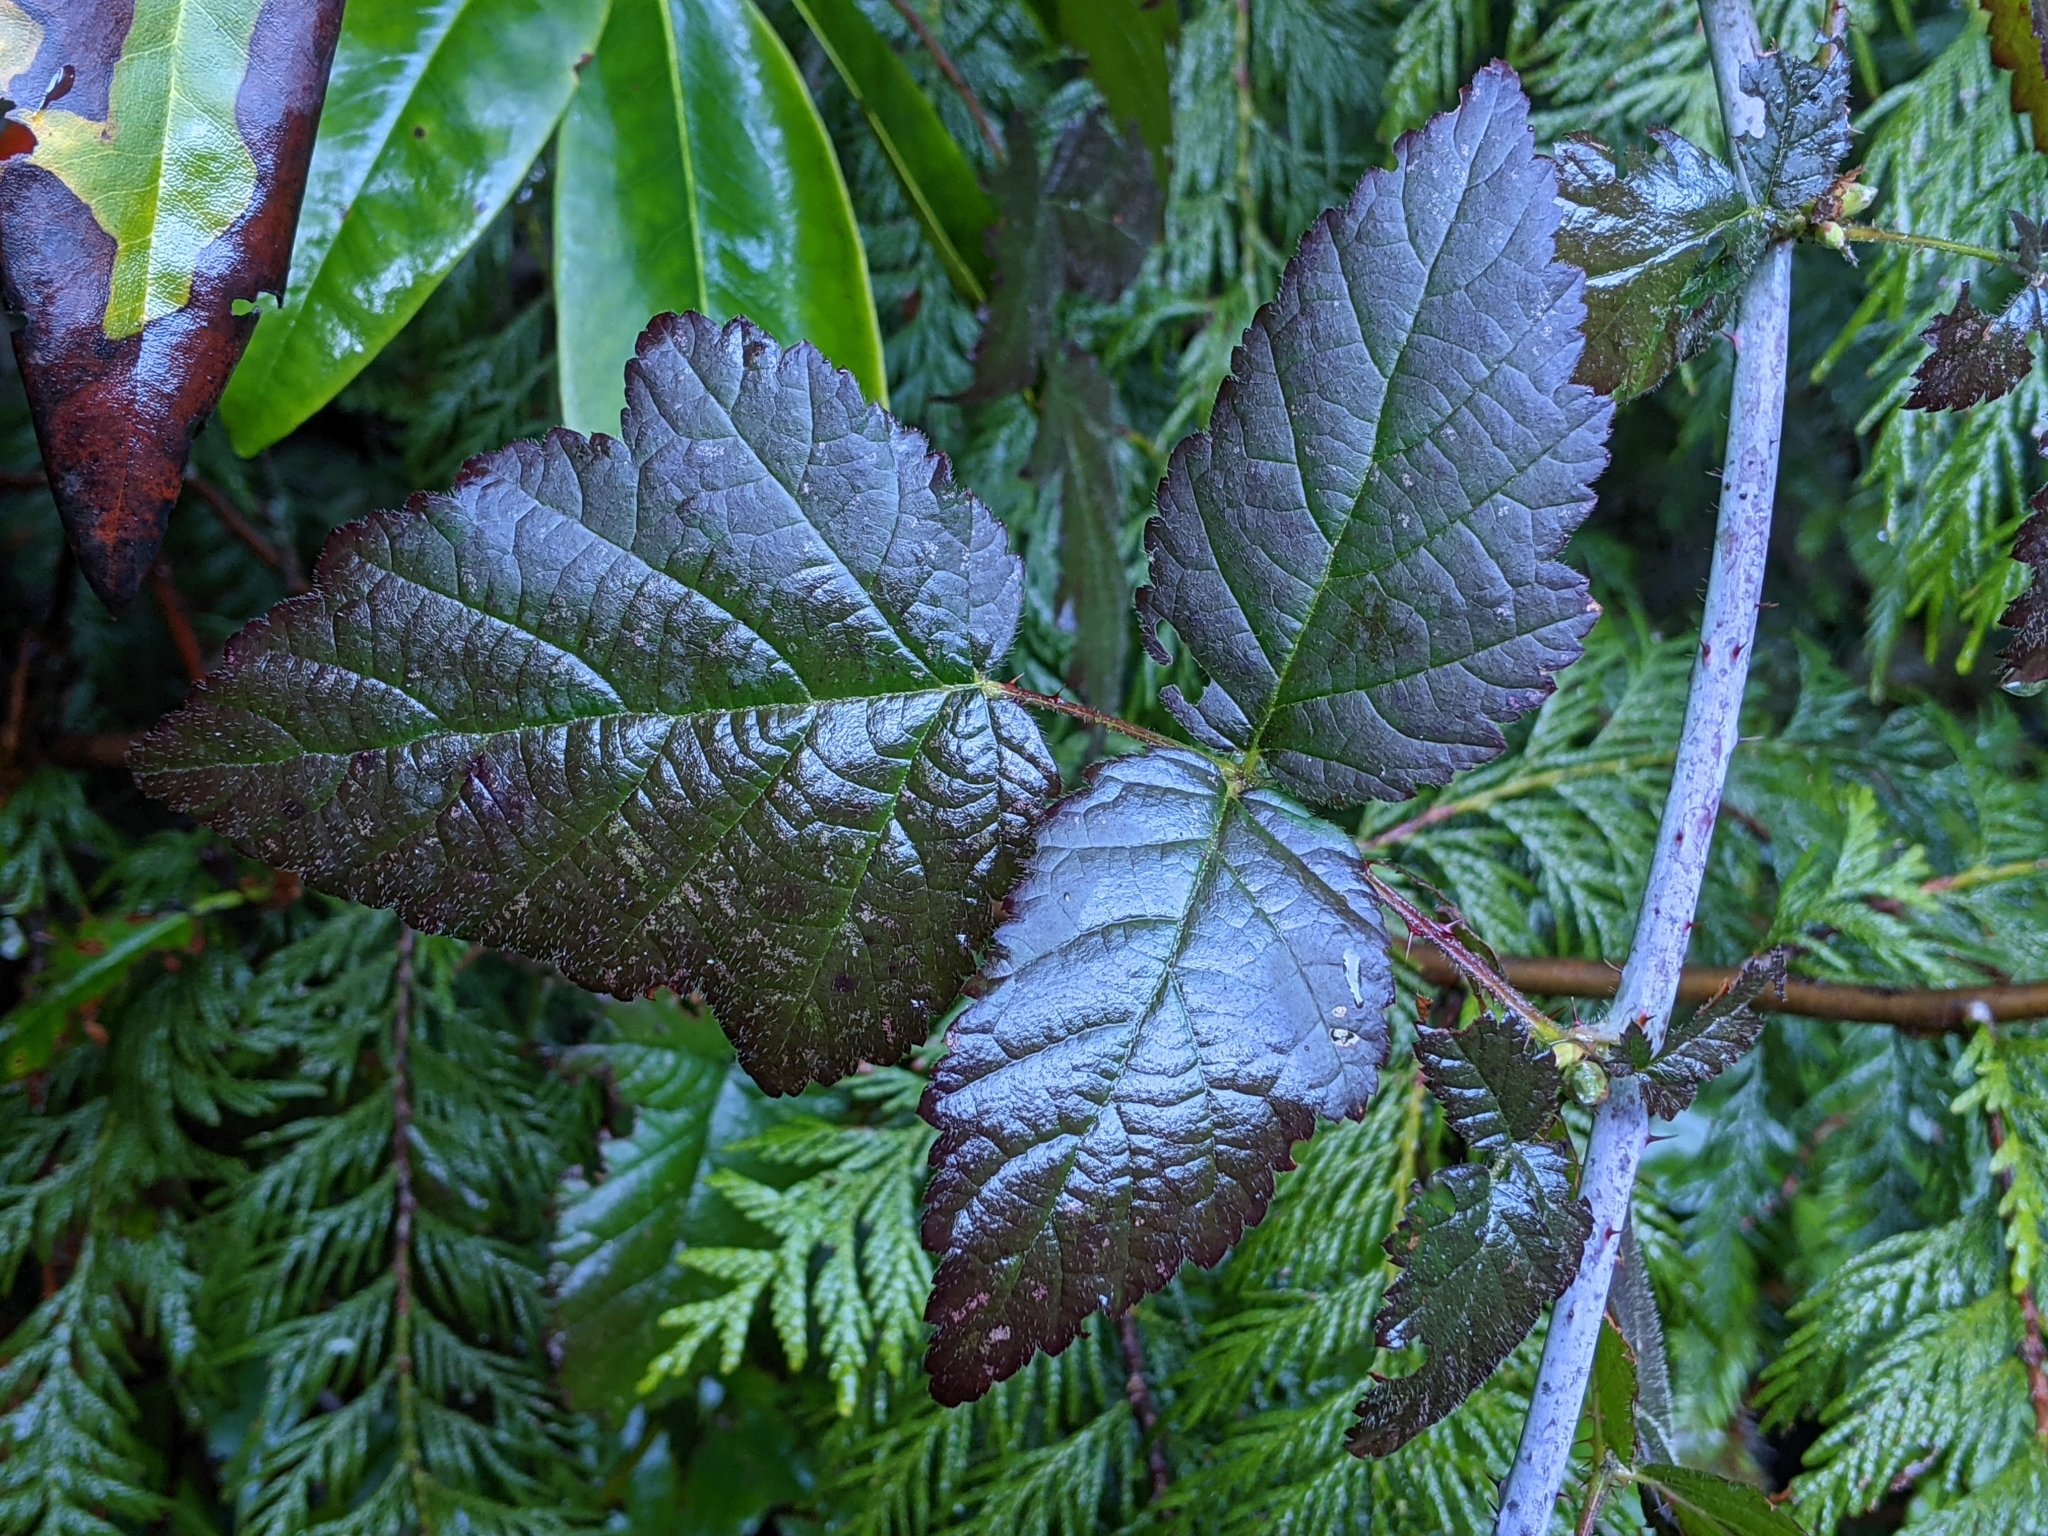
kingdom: Plantae
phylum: Tracheophyta
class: Magnoliopsida
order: Rosales
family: Rosaceae
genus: Rubus
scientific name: Rubus ursinus
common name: Pacific blackberry
